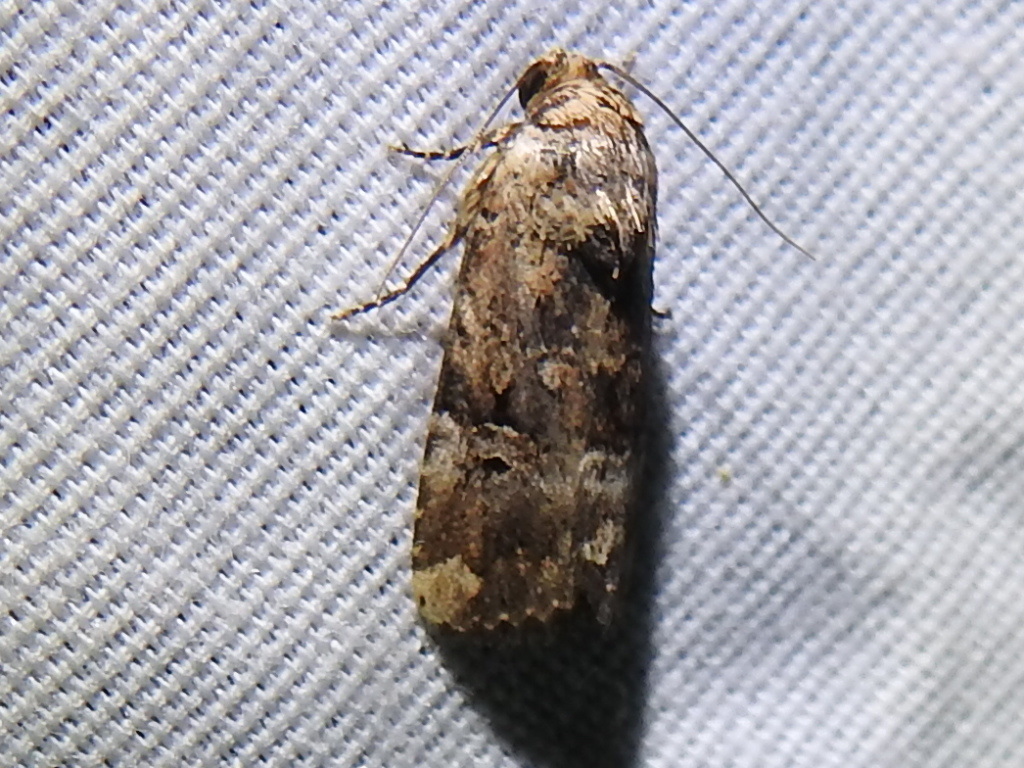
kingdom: Animalia
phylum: Arthropoda
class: Insecta
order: Lepidoptera
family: Noctuidae
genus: Elaphria
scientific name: Elaphria chalcedonia
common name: Chalcedony midget
